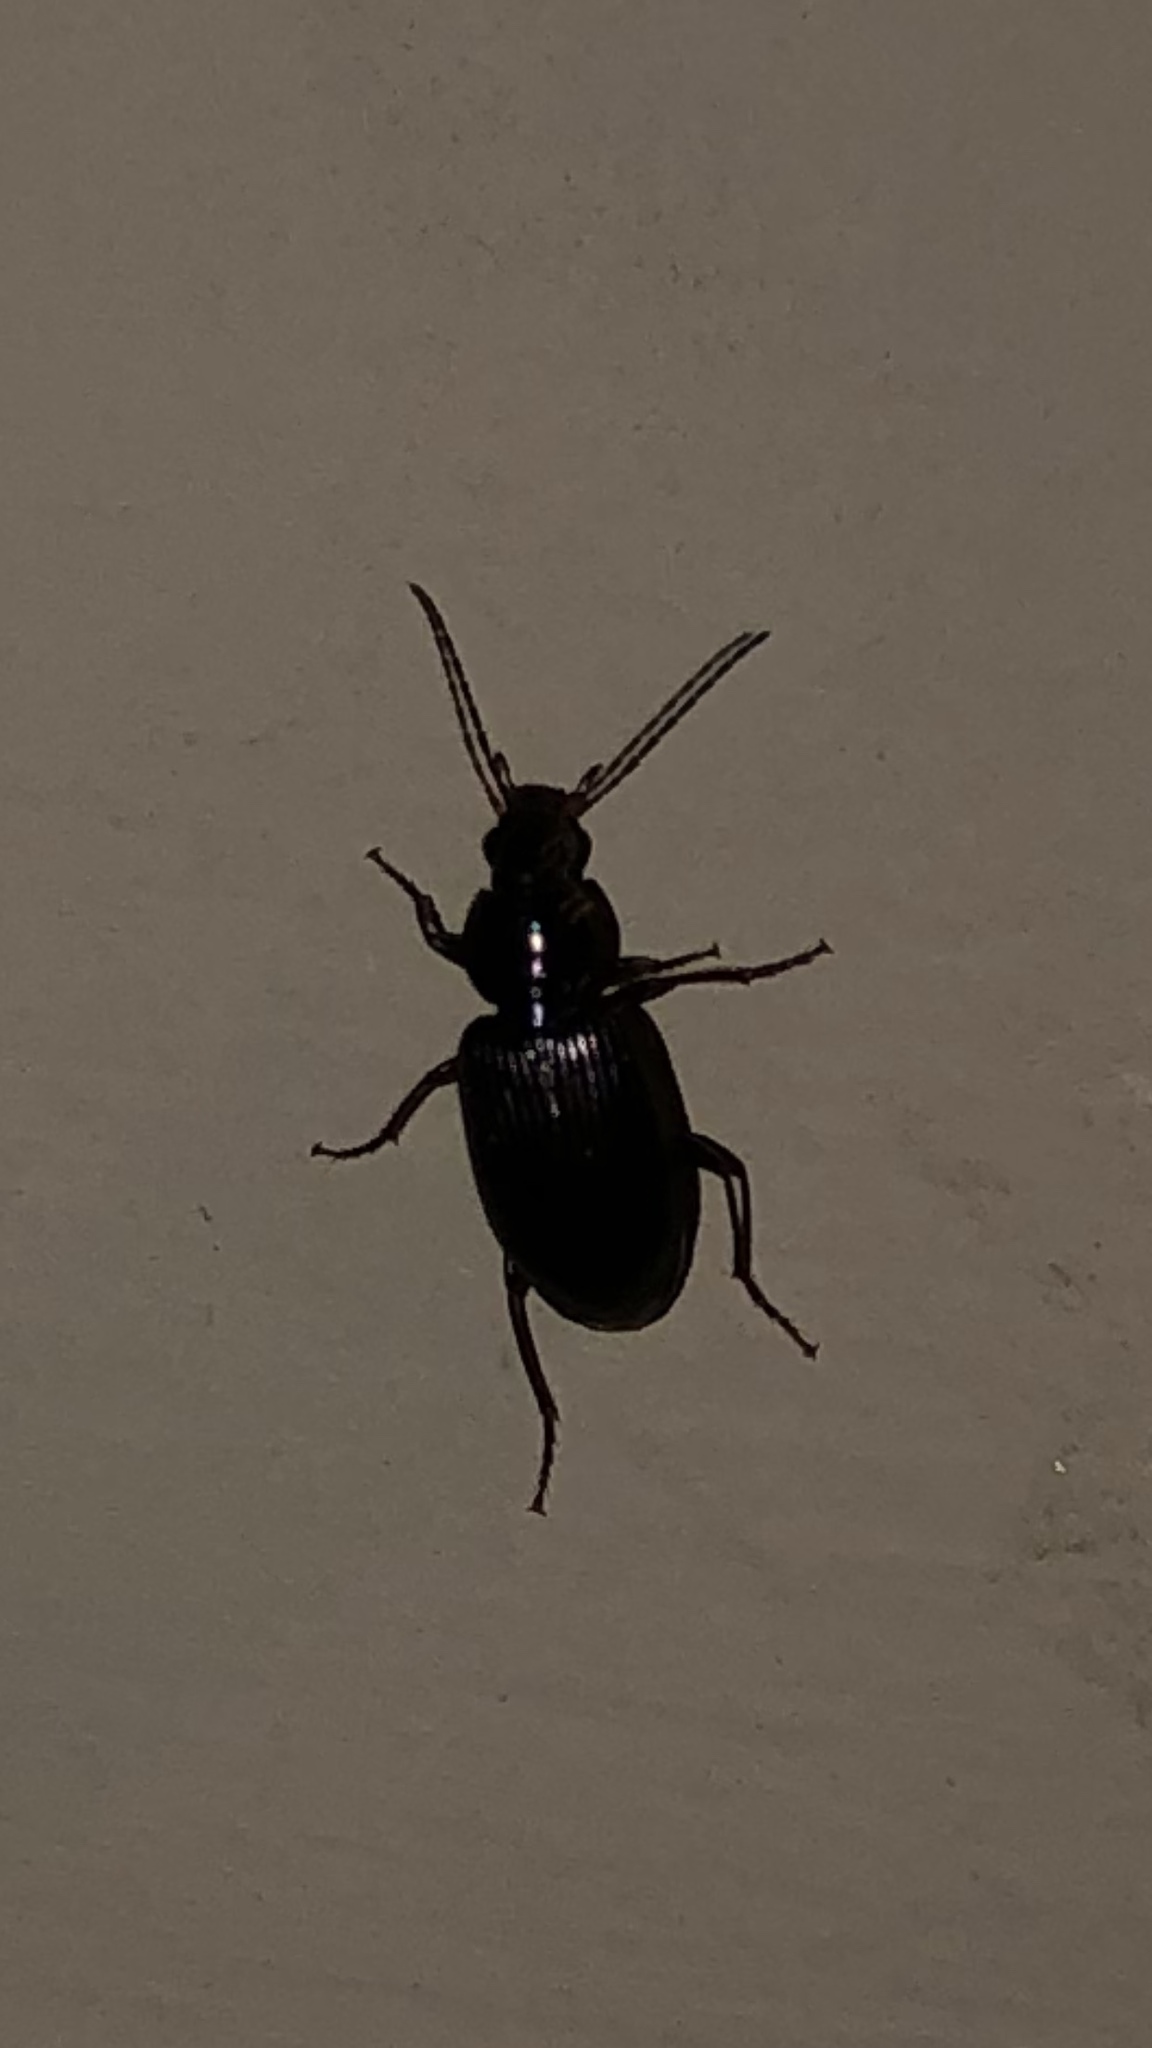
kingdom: Animalia
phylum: Arthropoda
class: Insecta
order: Coleoptera
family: Carabidae
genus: Agonum
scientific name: Agonum punctiforme
